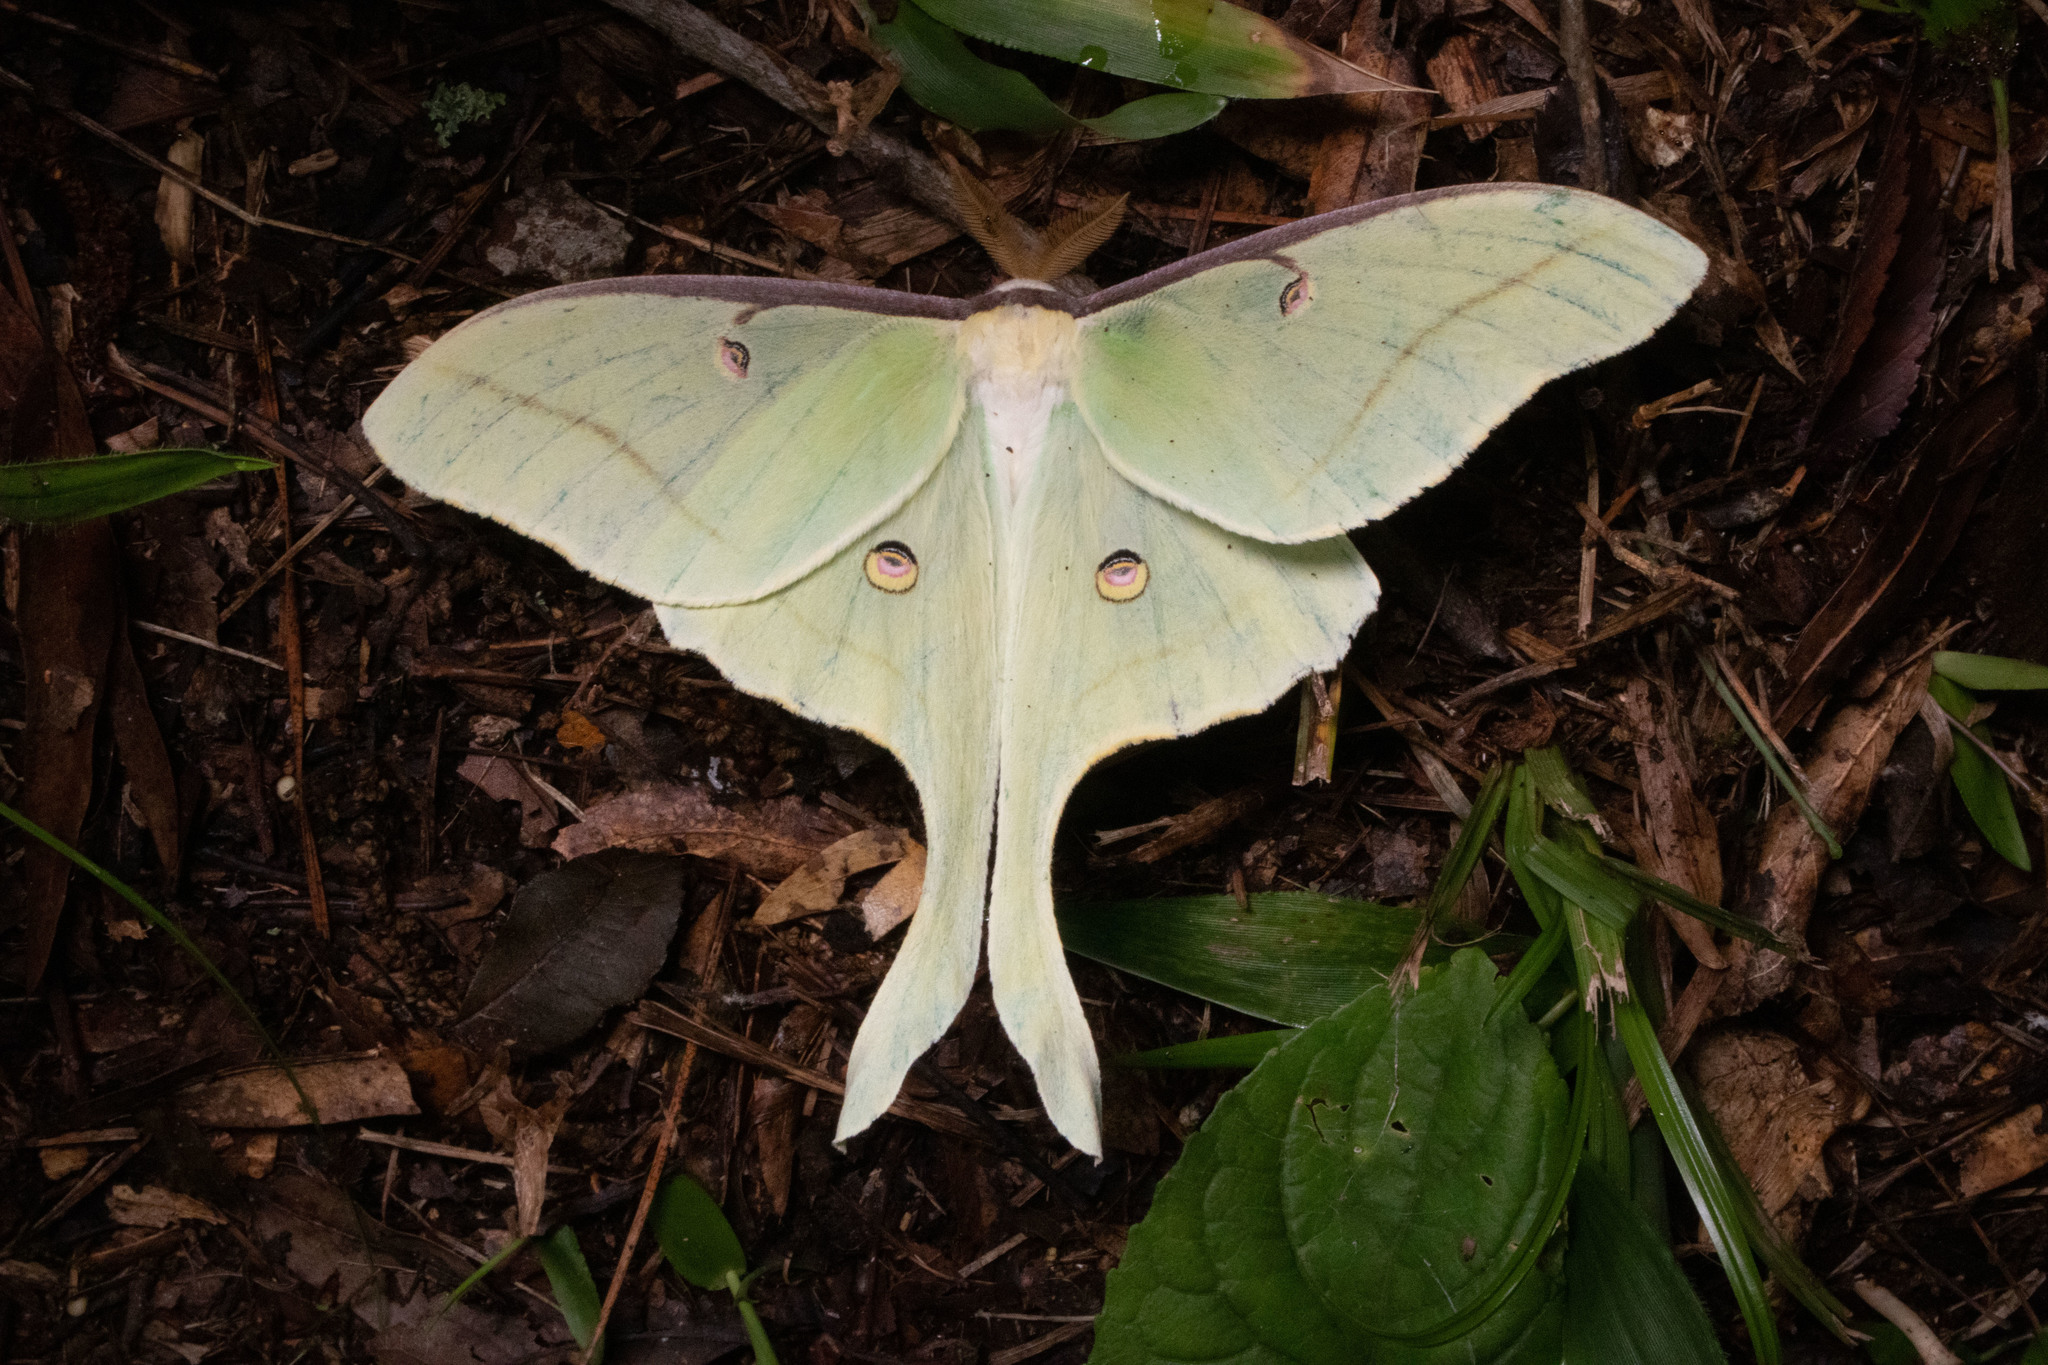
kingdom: Animalia
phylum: Arthropoda
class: Insecta
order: Lepidoptera
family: Saturniidae
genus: Actias
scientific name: Actias luna
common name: Luna moth
